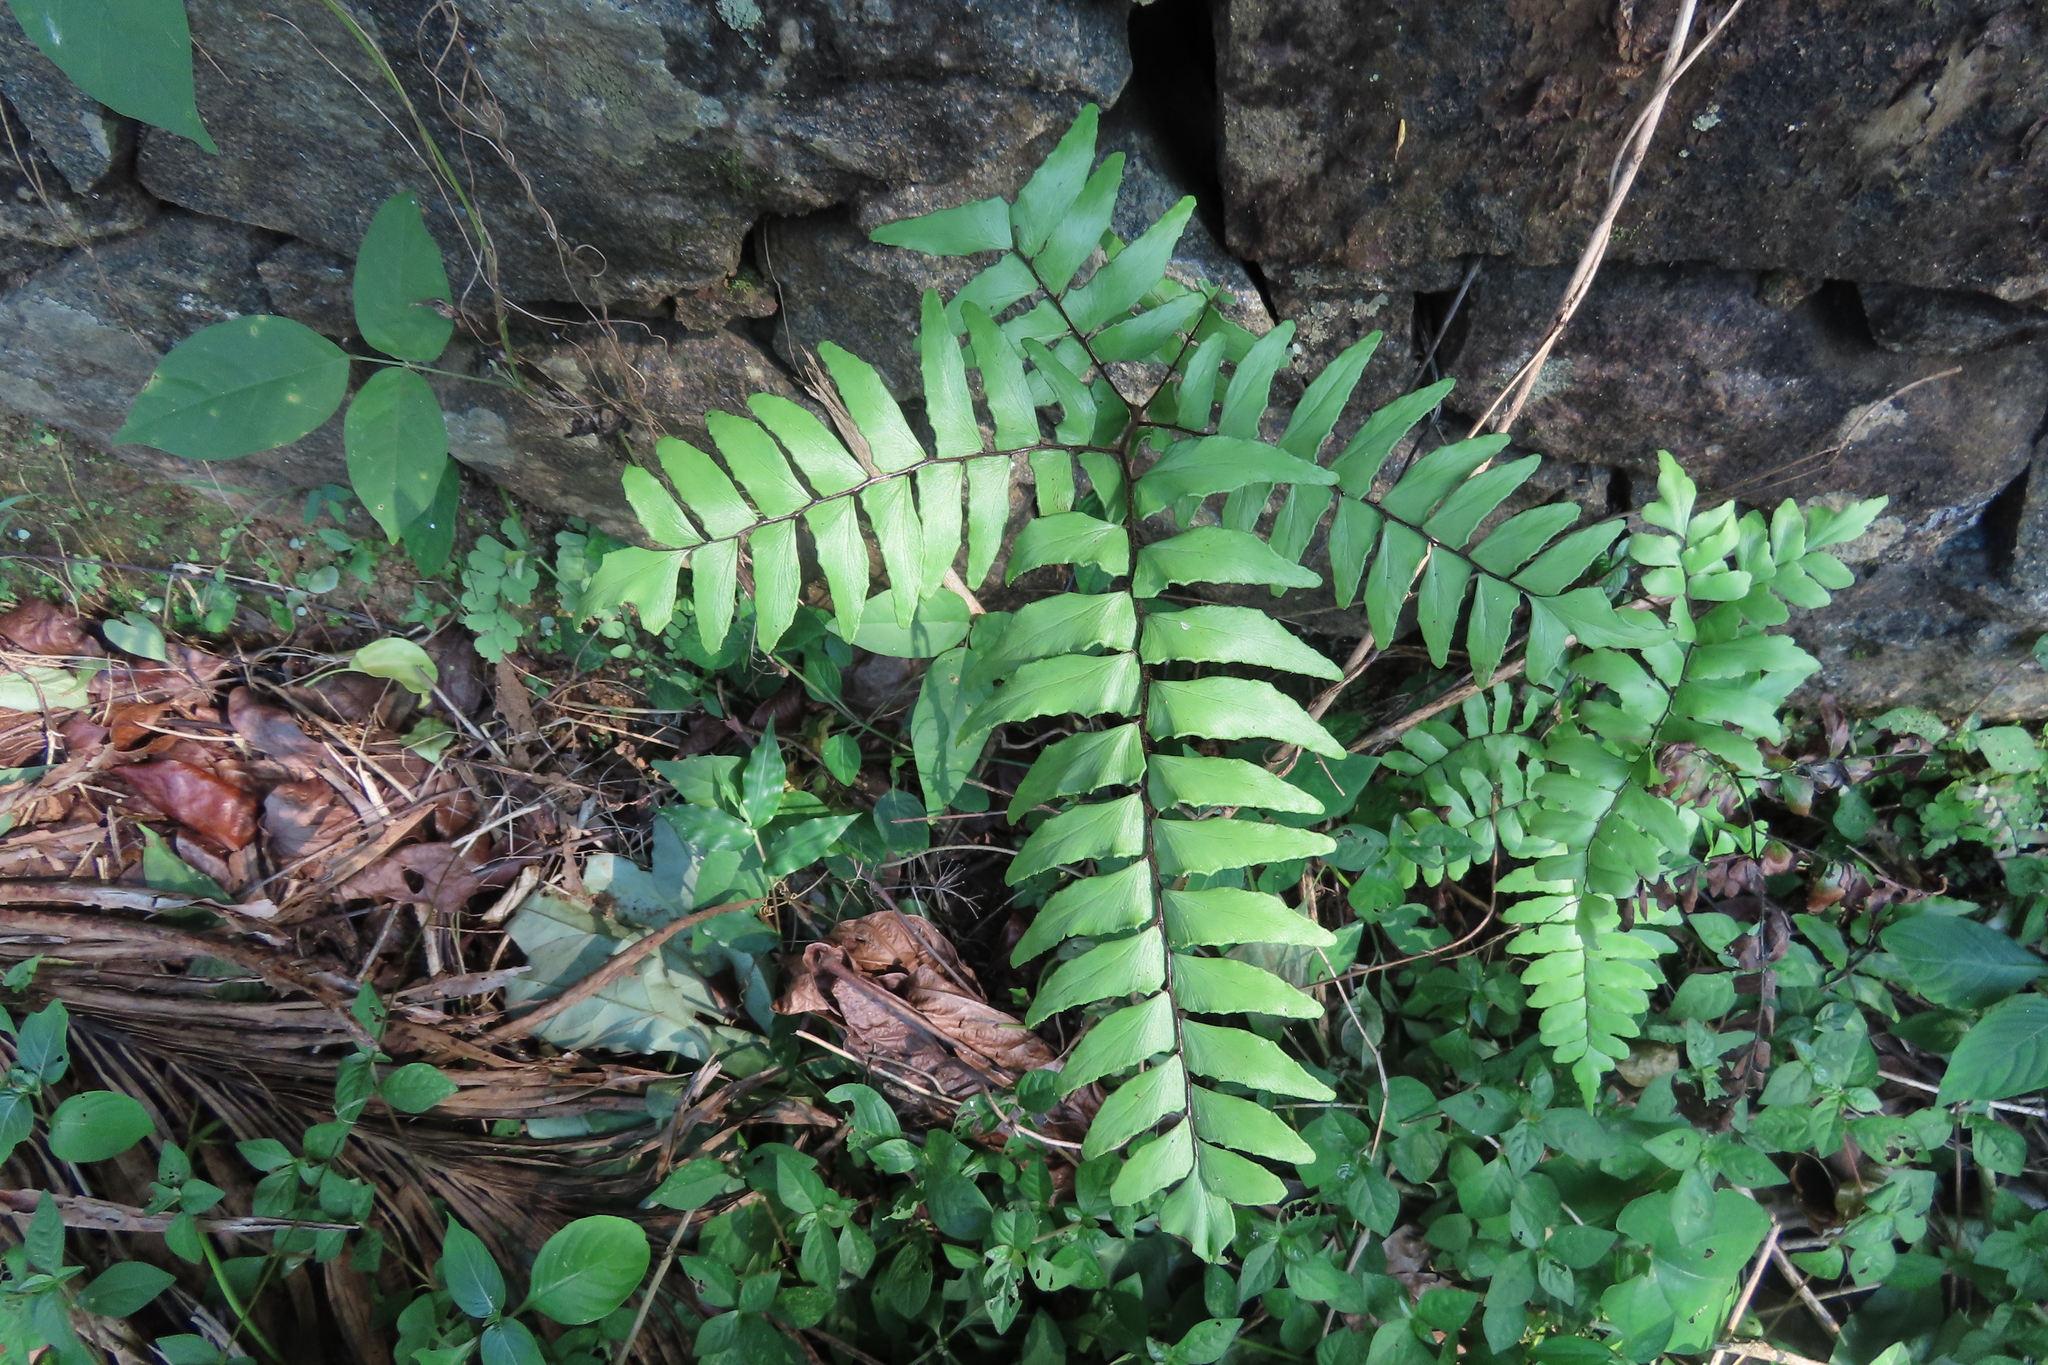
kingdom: Plantae
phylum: Tracheophyta
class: Polypodiopsida
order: Polypodiales
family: Pteridaceae
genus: Adiantum
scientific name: Adiantum latifolium
